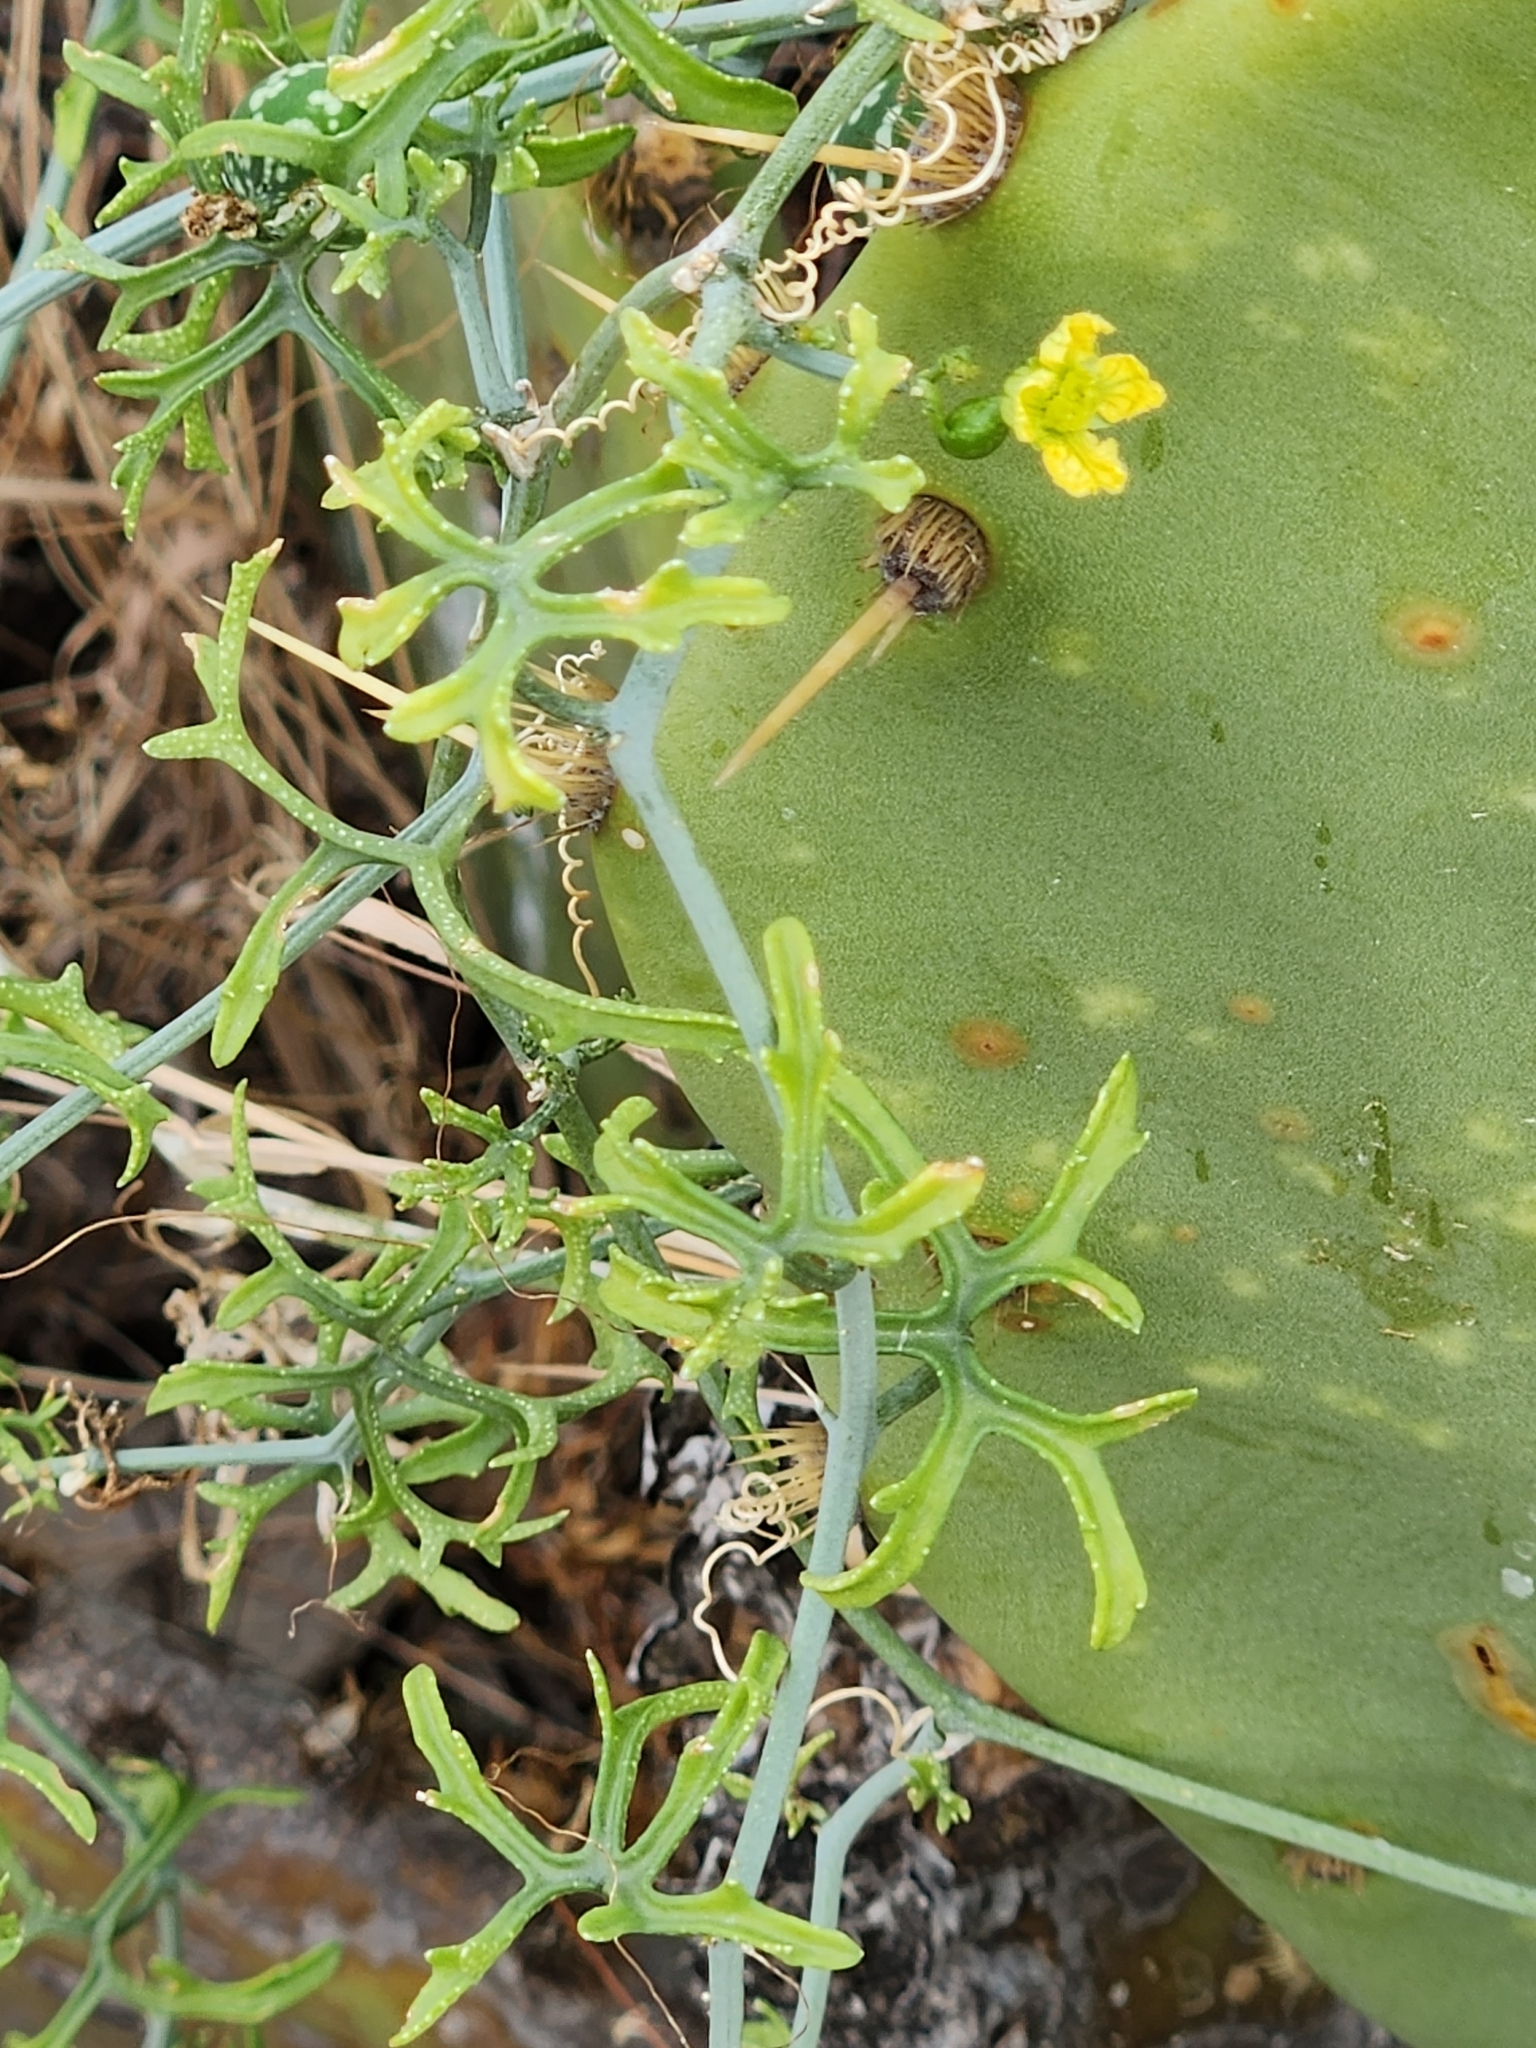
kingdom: Plantae
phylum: Tracheophyta
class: Magnoliopsida
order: Cucurbitales
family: Cucurbitaceae
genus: Ibervillea
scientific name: Ibervillea tenuisecta
